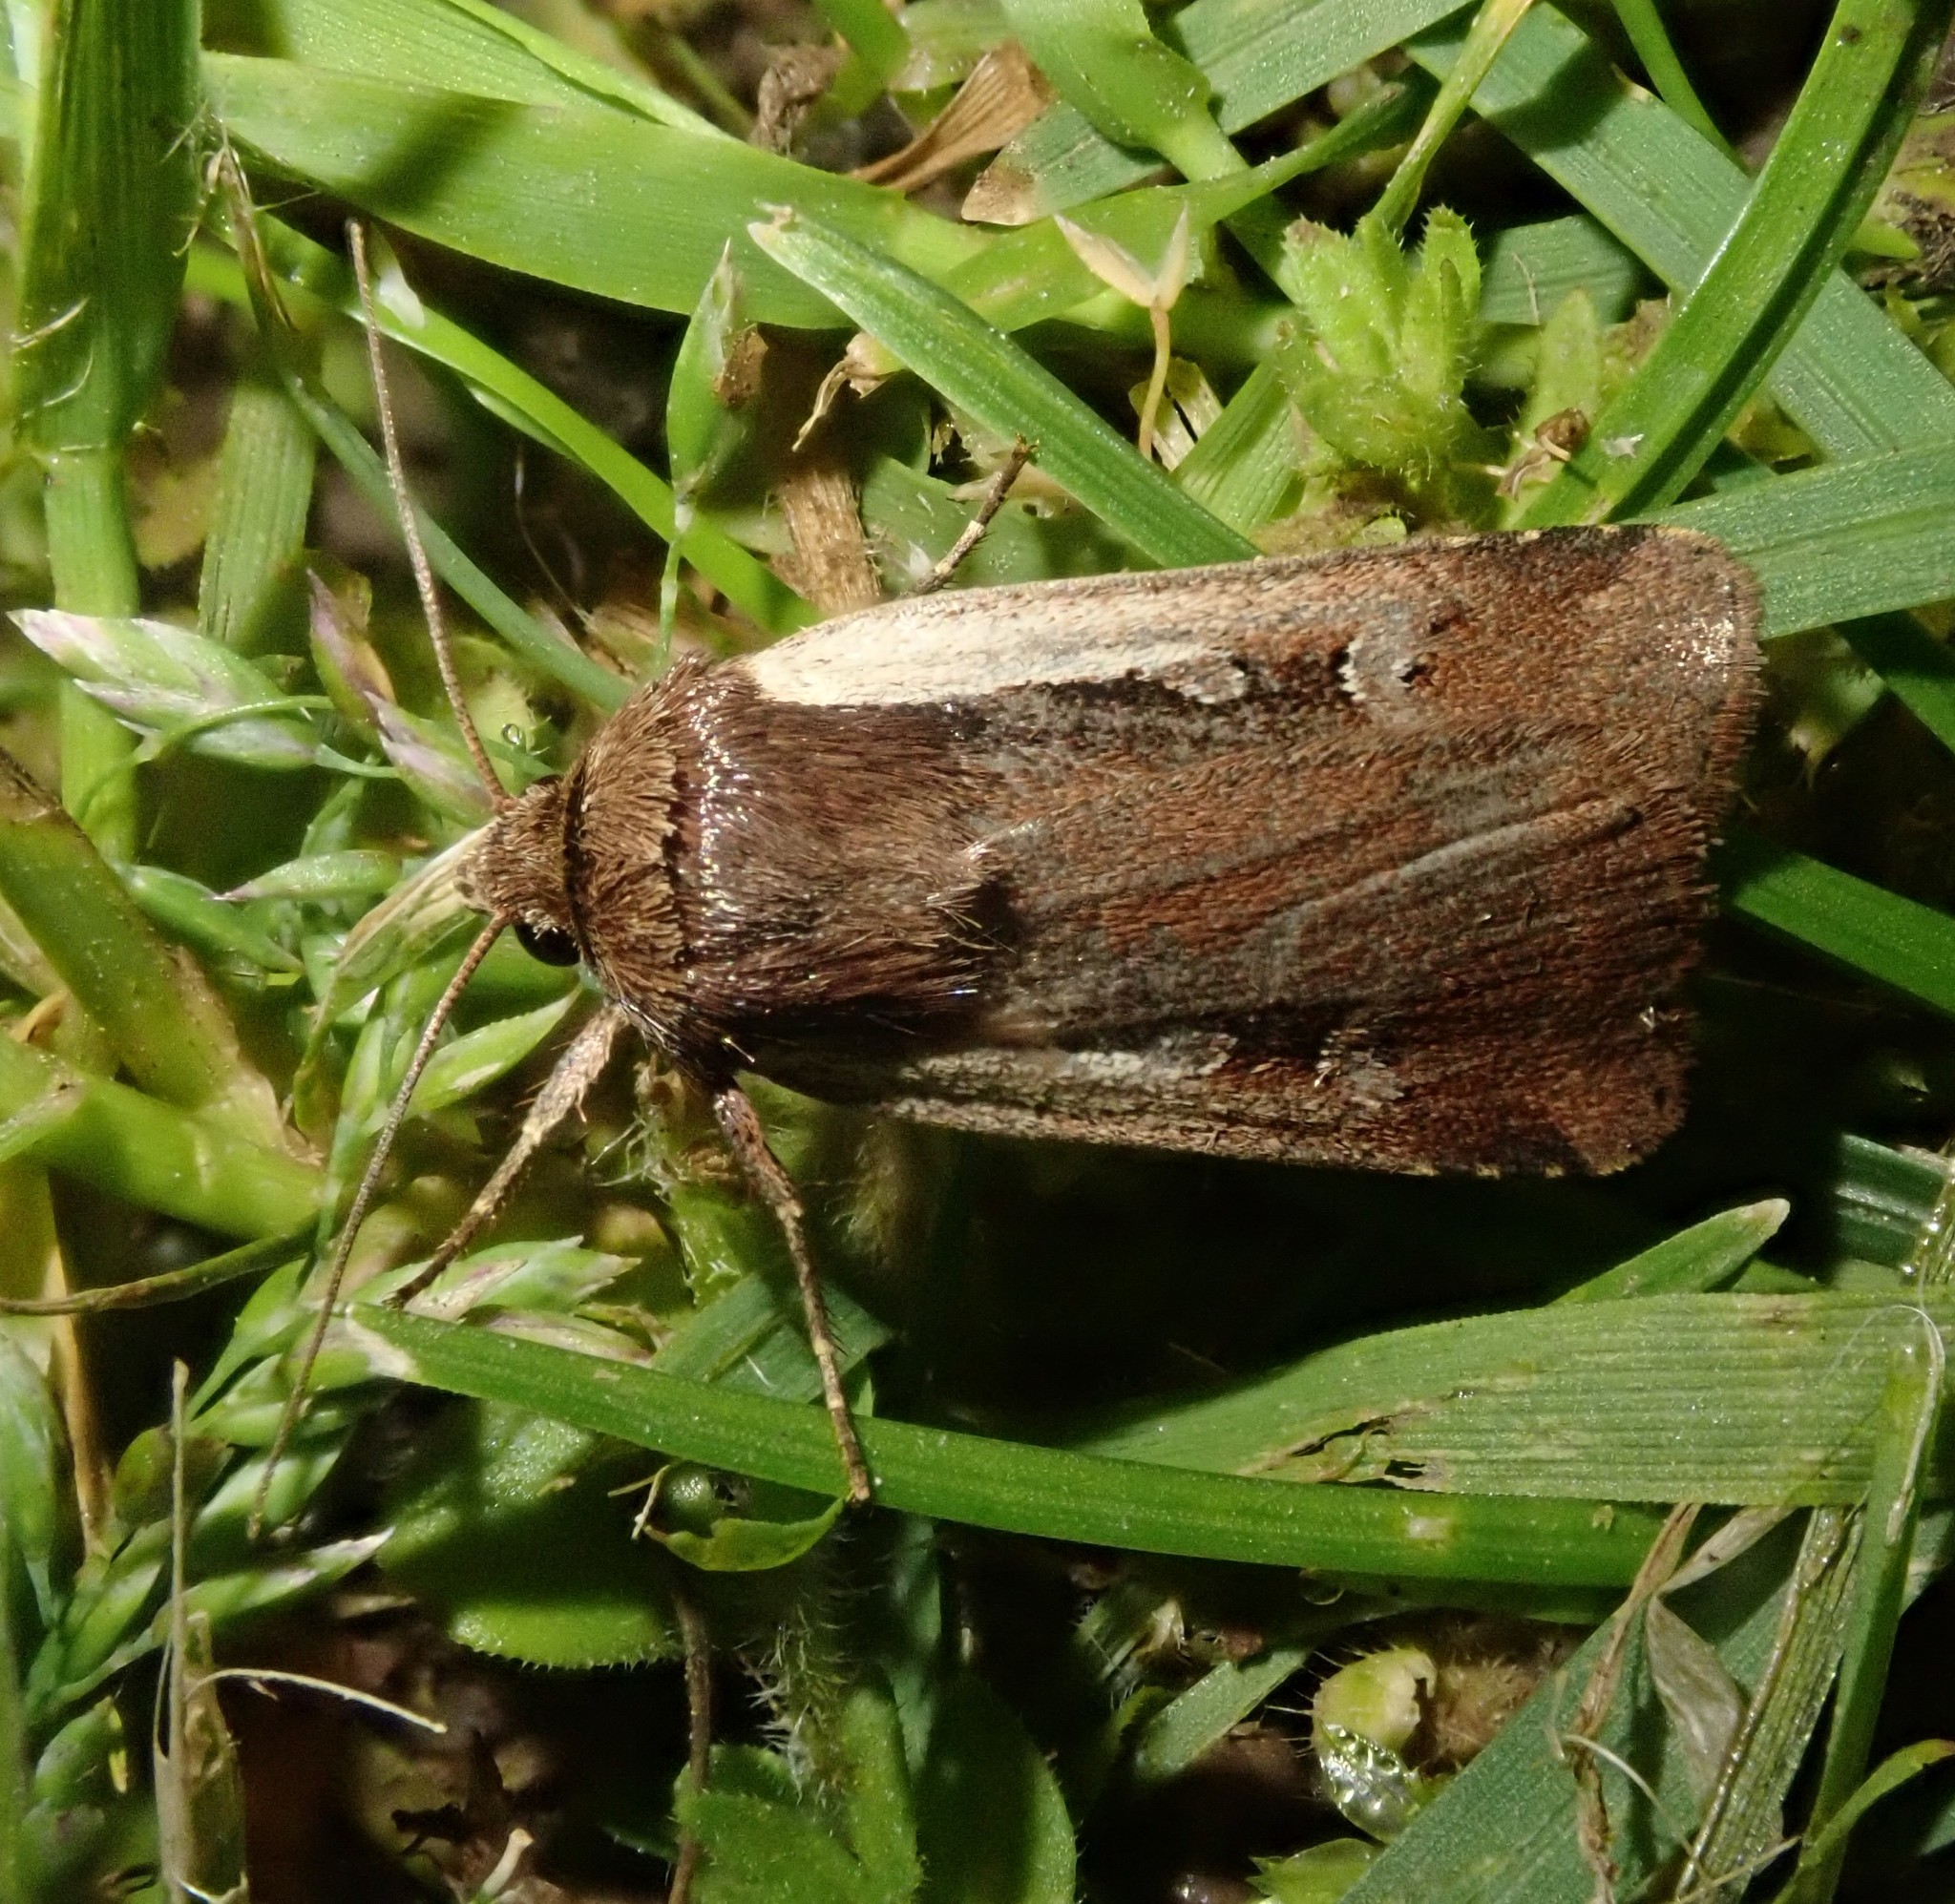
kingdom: Animalia
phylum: Arthropoda
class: Insecta
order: Lepidoptera
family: Noctuidae
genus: Ochropleura
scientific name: Ochropleura plecta
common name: Flame shoulder
